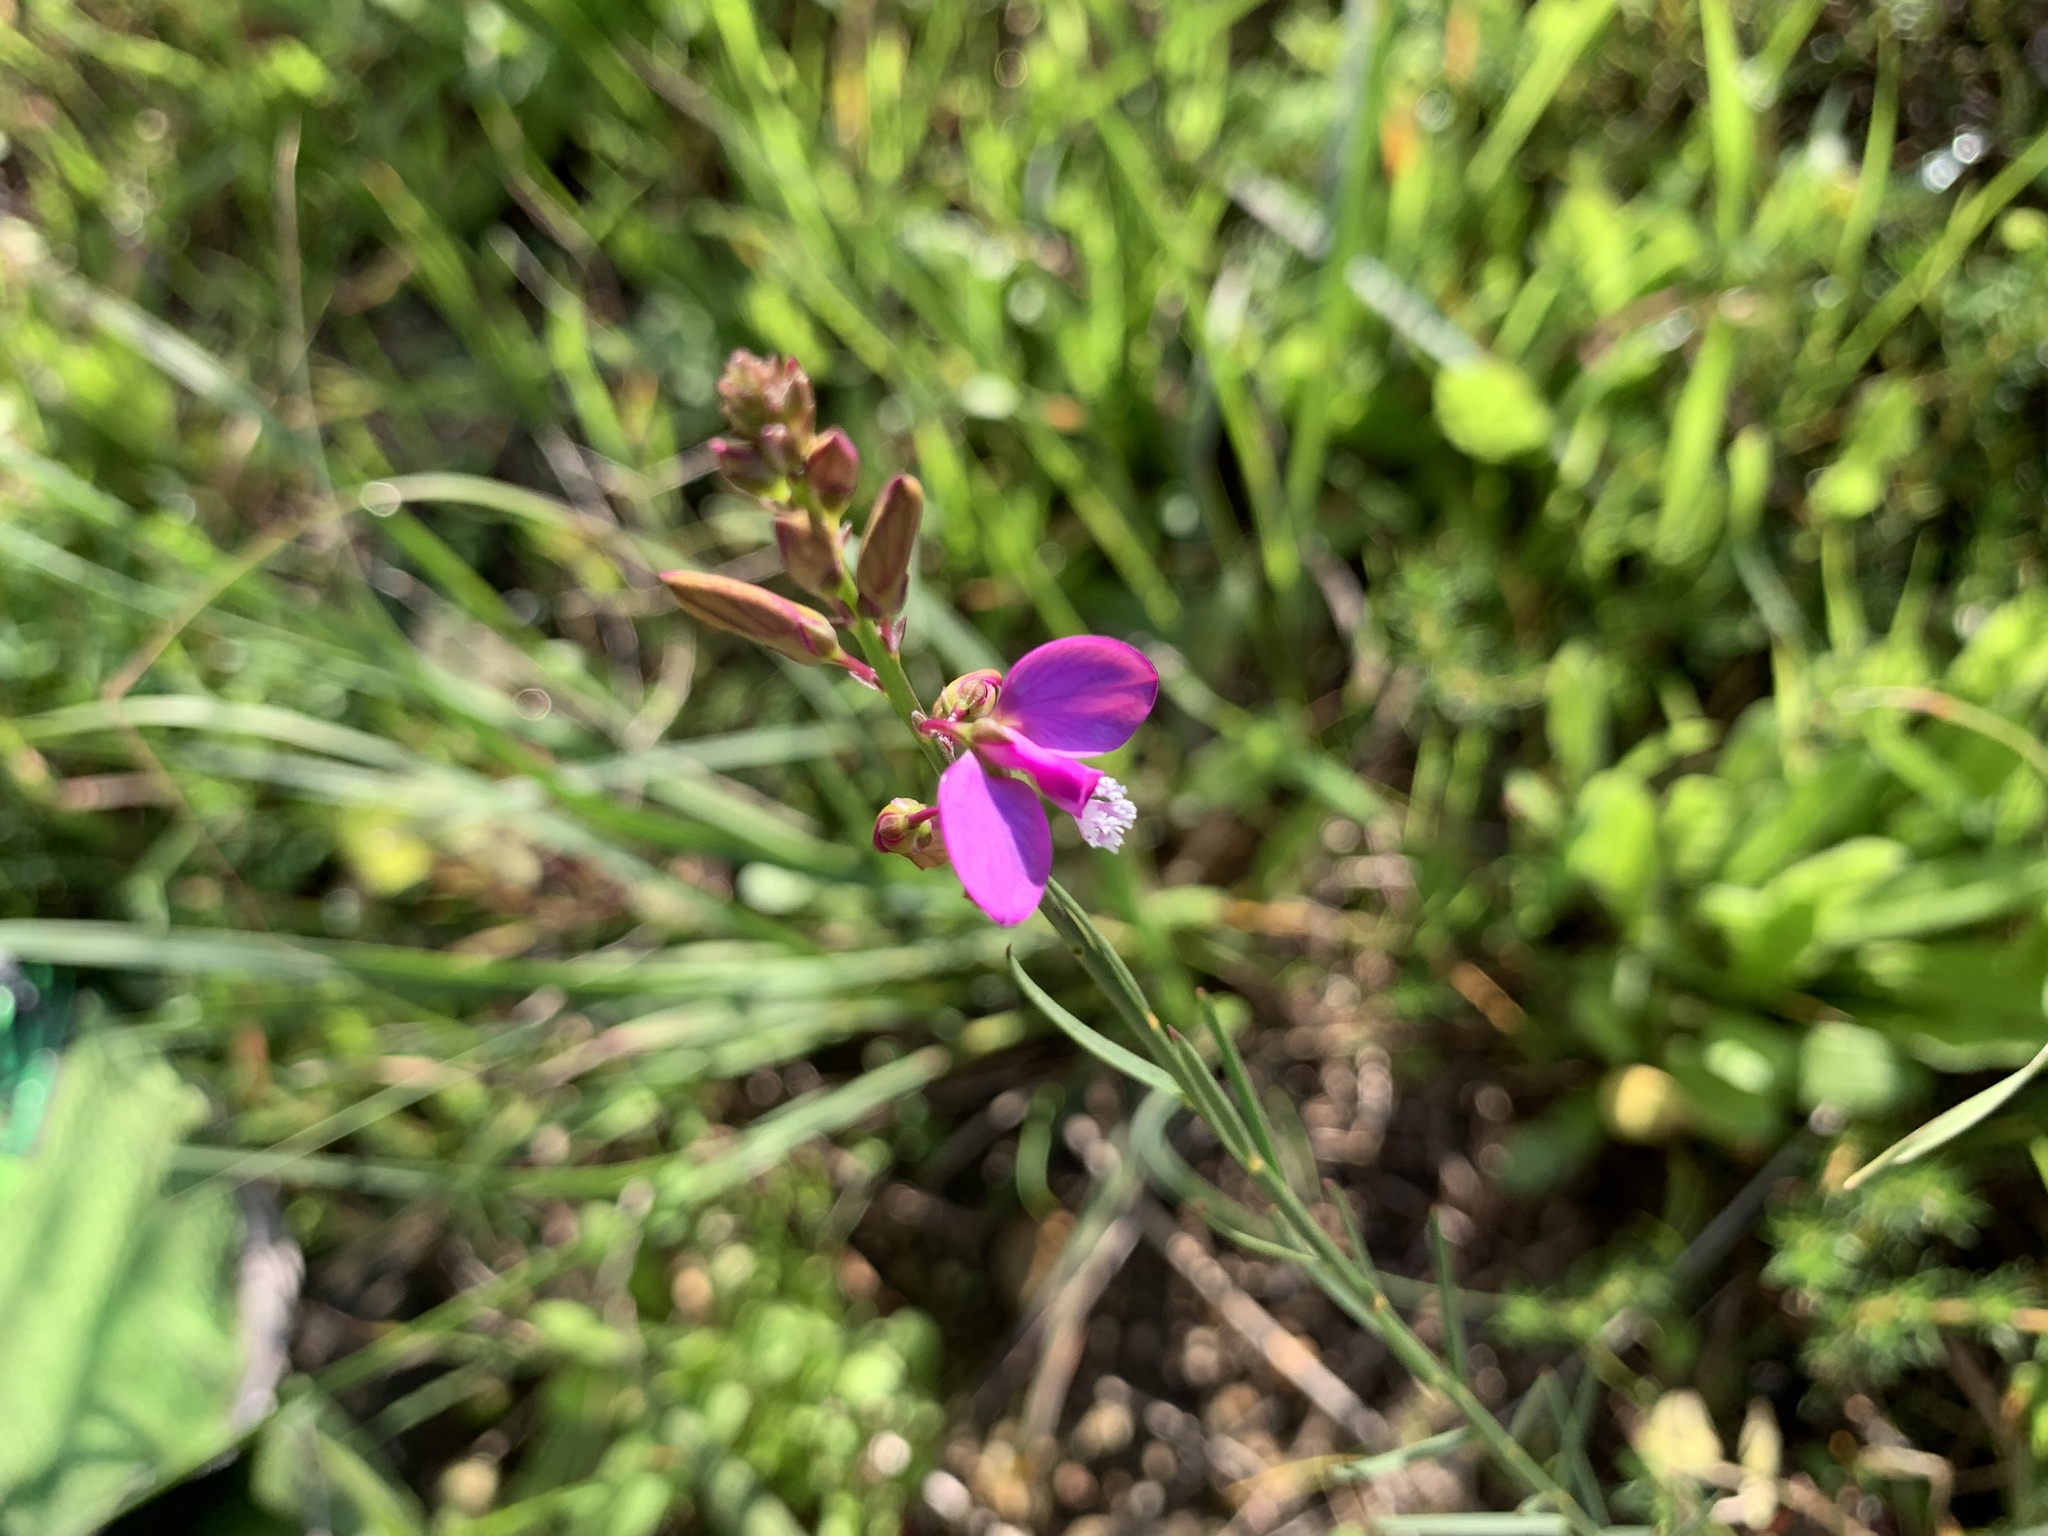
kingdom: Plantae
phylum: Tracheophyta
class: Magnoliopsida
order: Fabales
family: Polygalaceae
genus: Polygala
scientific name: Polygala garcini
